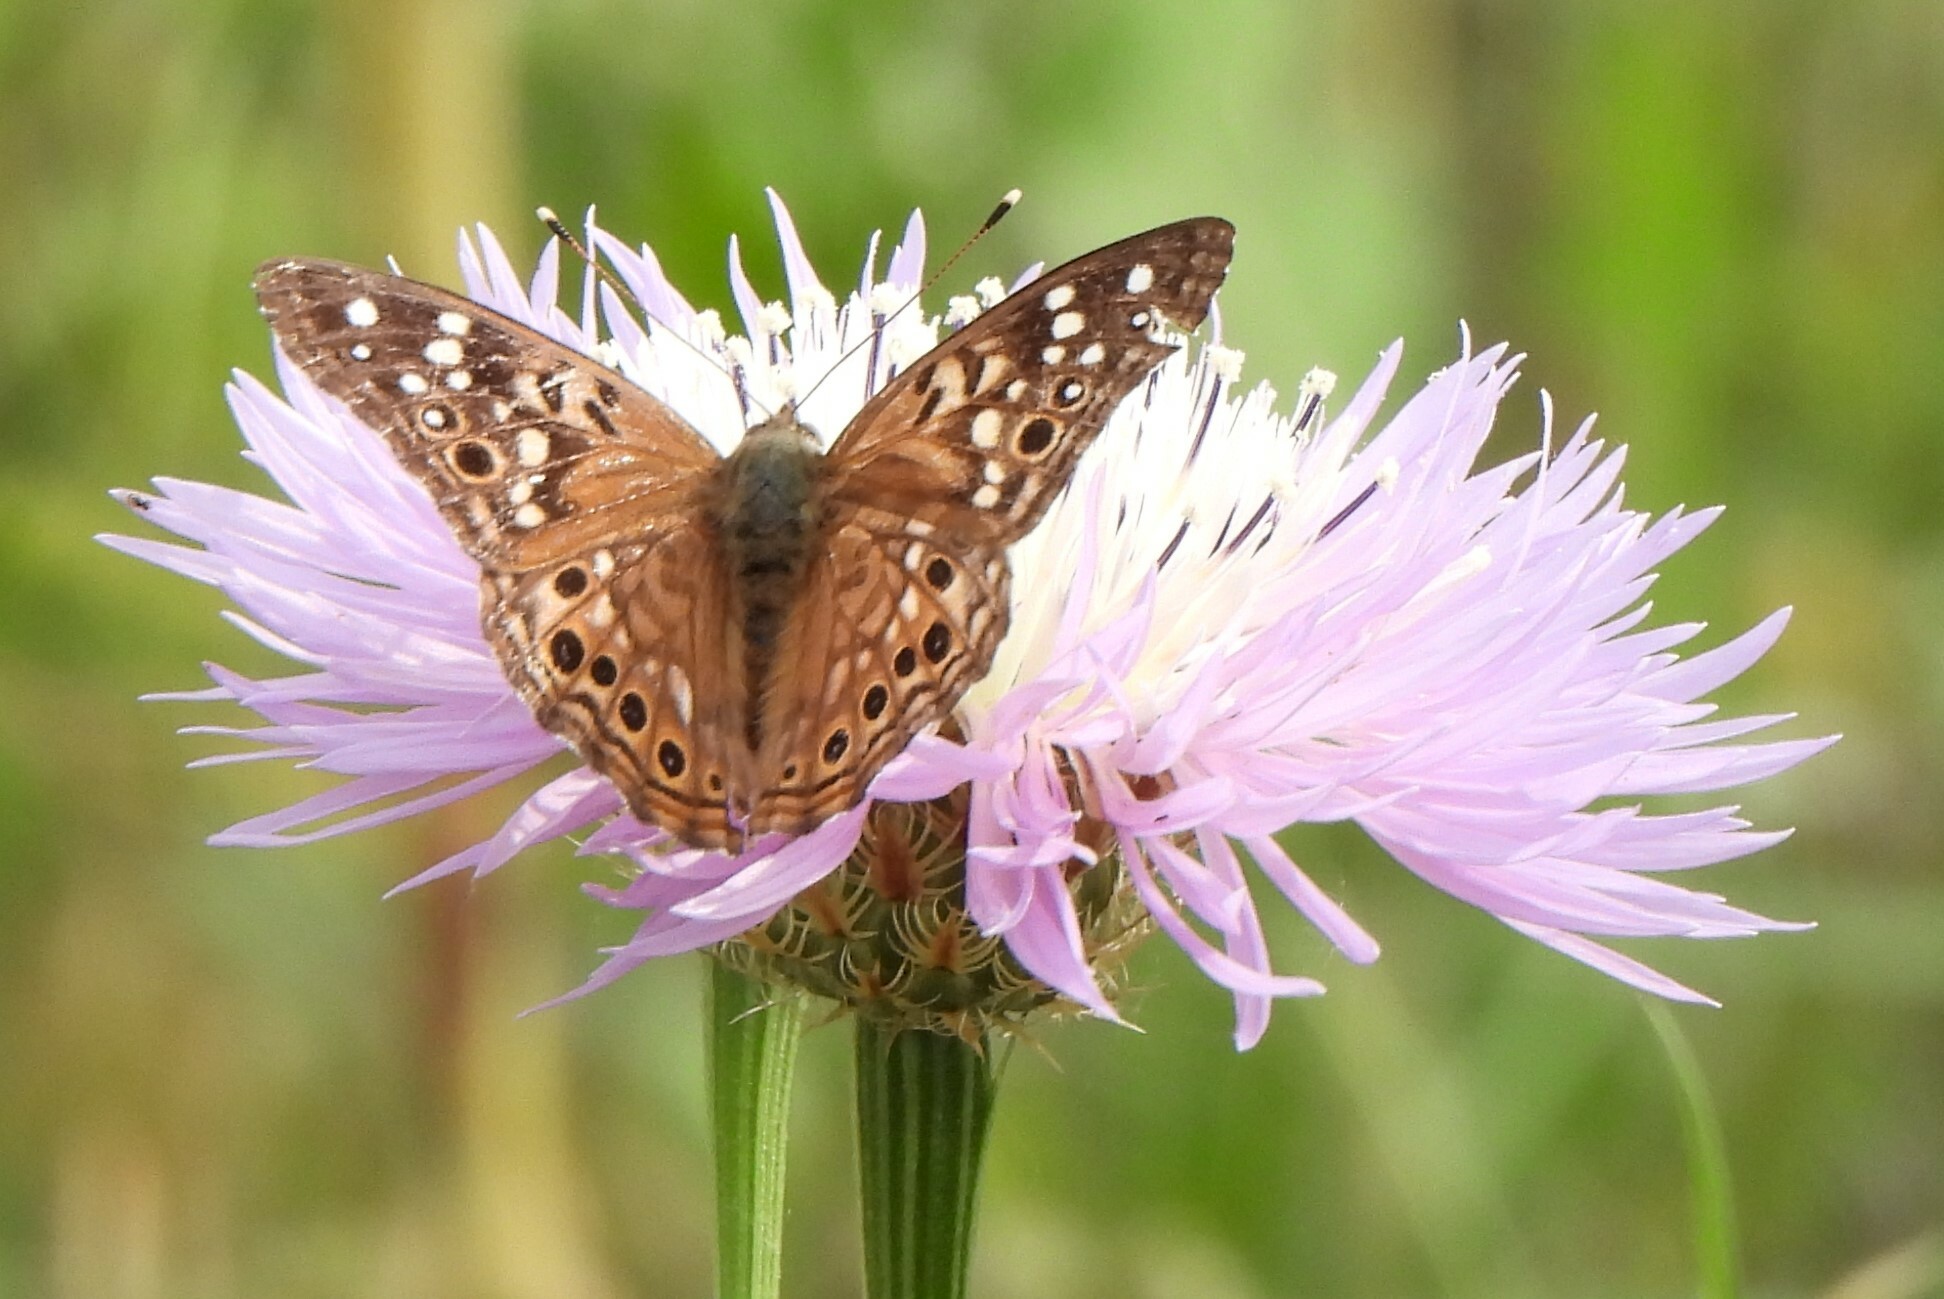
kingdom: Animalia
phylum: Arthropoda
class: Insecta
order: Lepidoptera
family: Nymphalidae
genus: Asterocampa
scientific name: Asterocampa celtis
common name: Hackberry emperor
